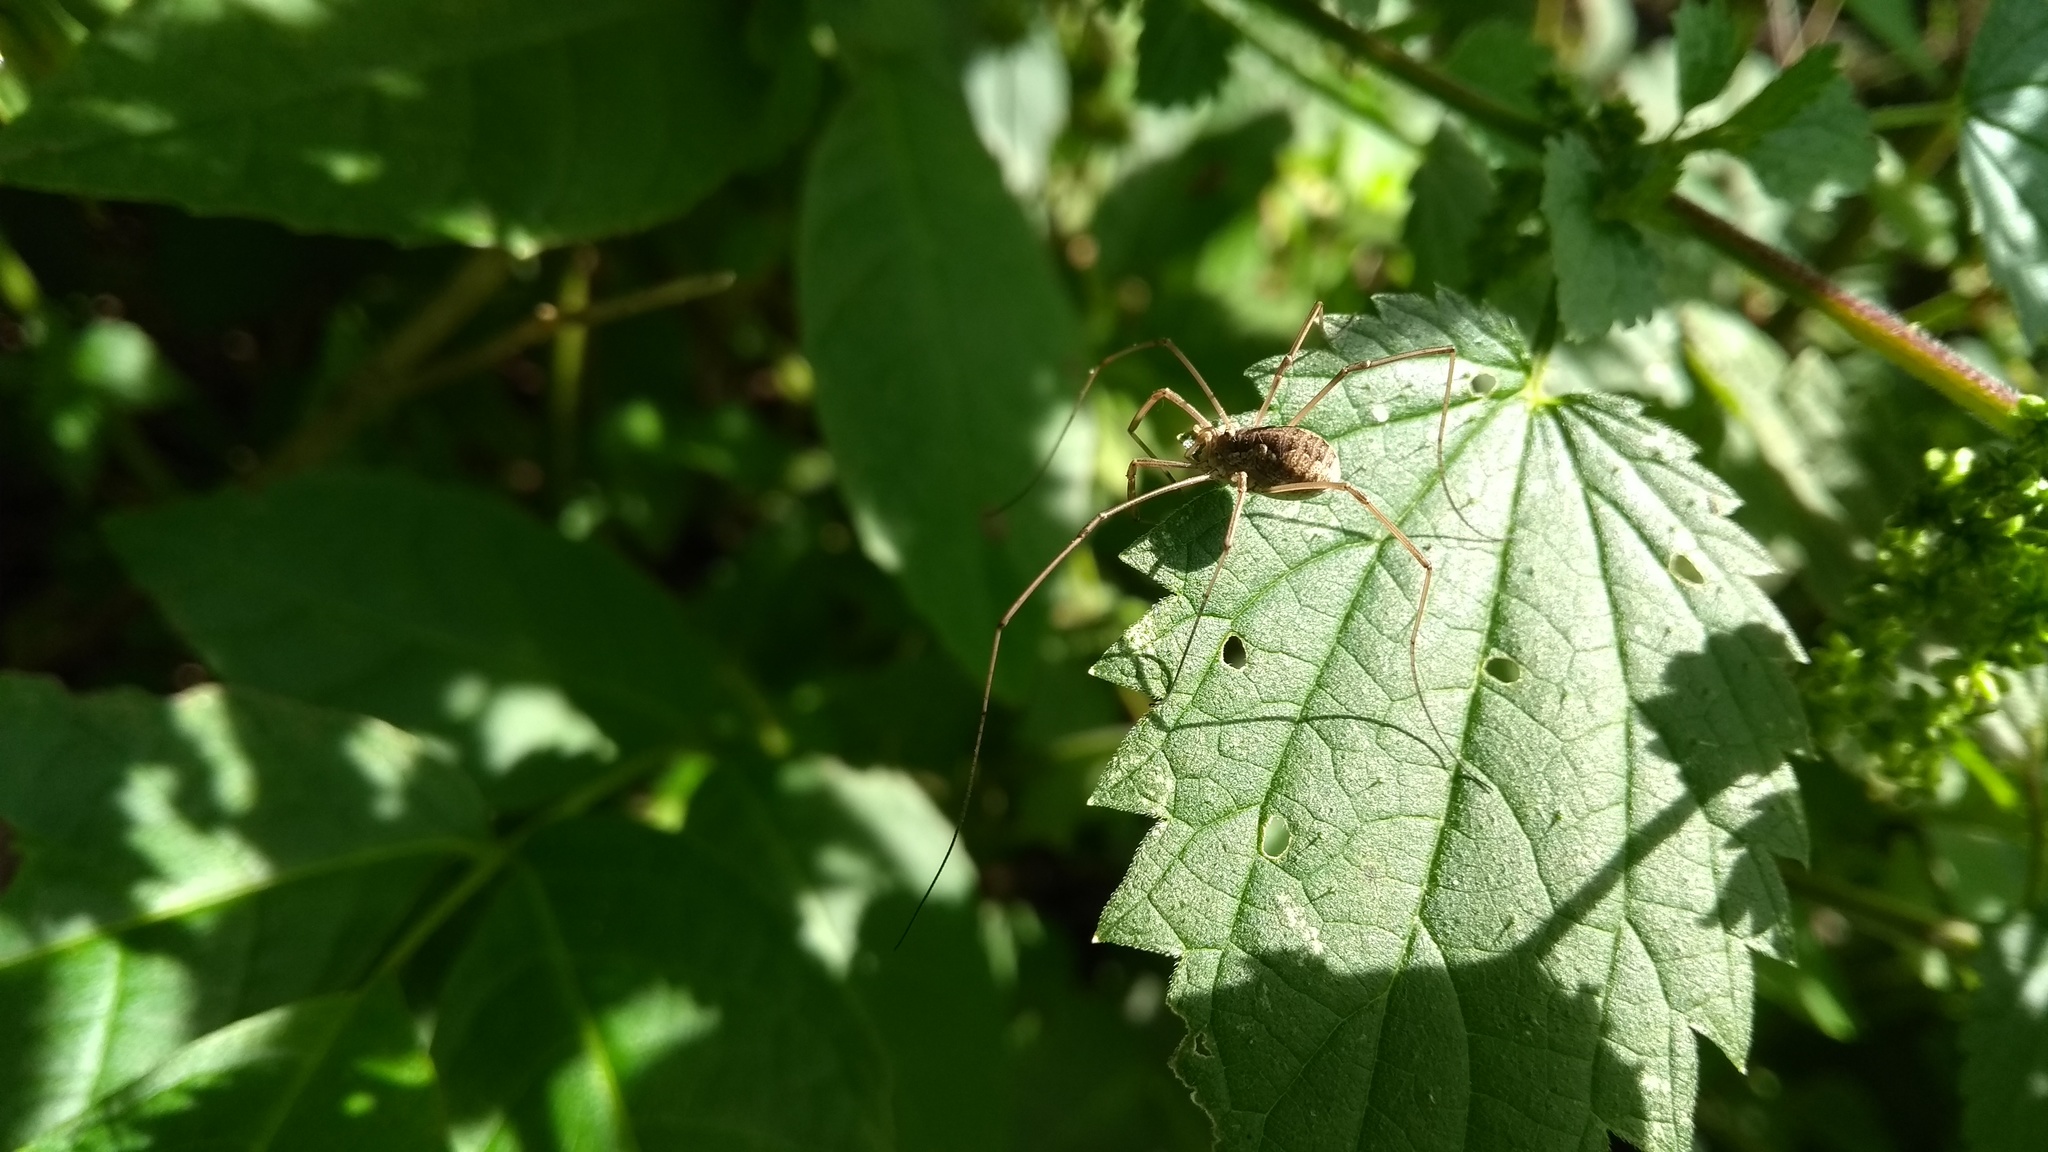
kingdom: Animalia
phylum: Arthropoda
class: Arachnida
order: Opiliones
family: Phalangiidae
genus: Phalangium
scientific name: Phalangium opilio
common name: Daddy longleg
